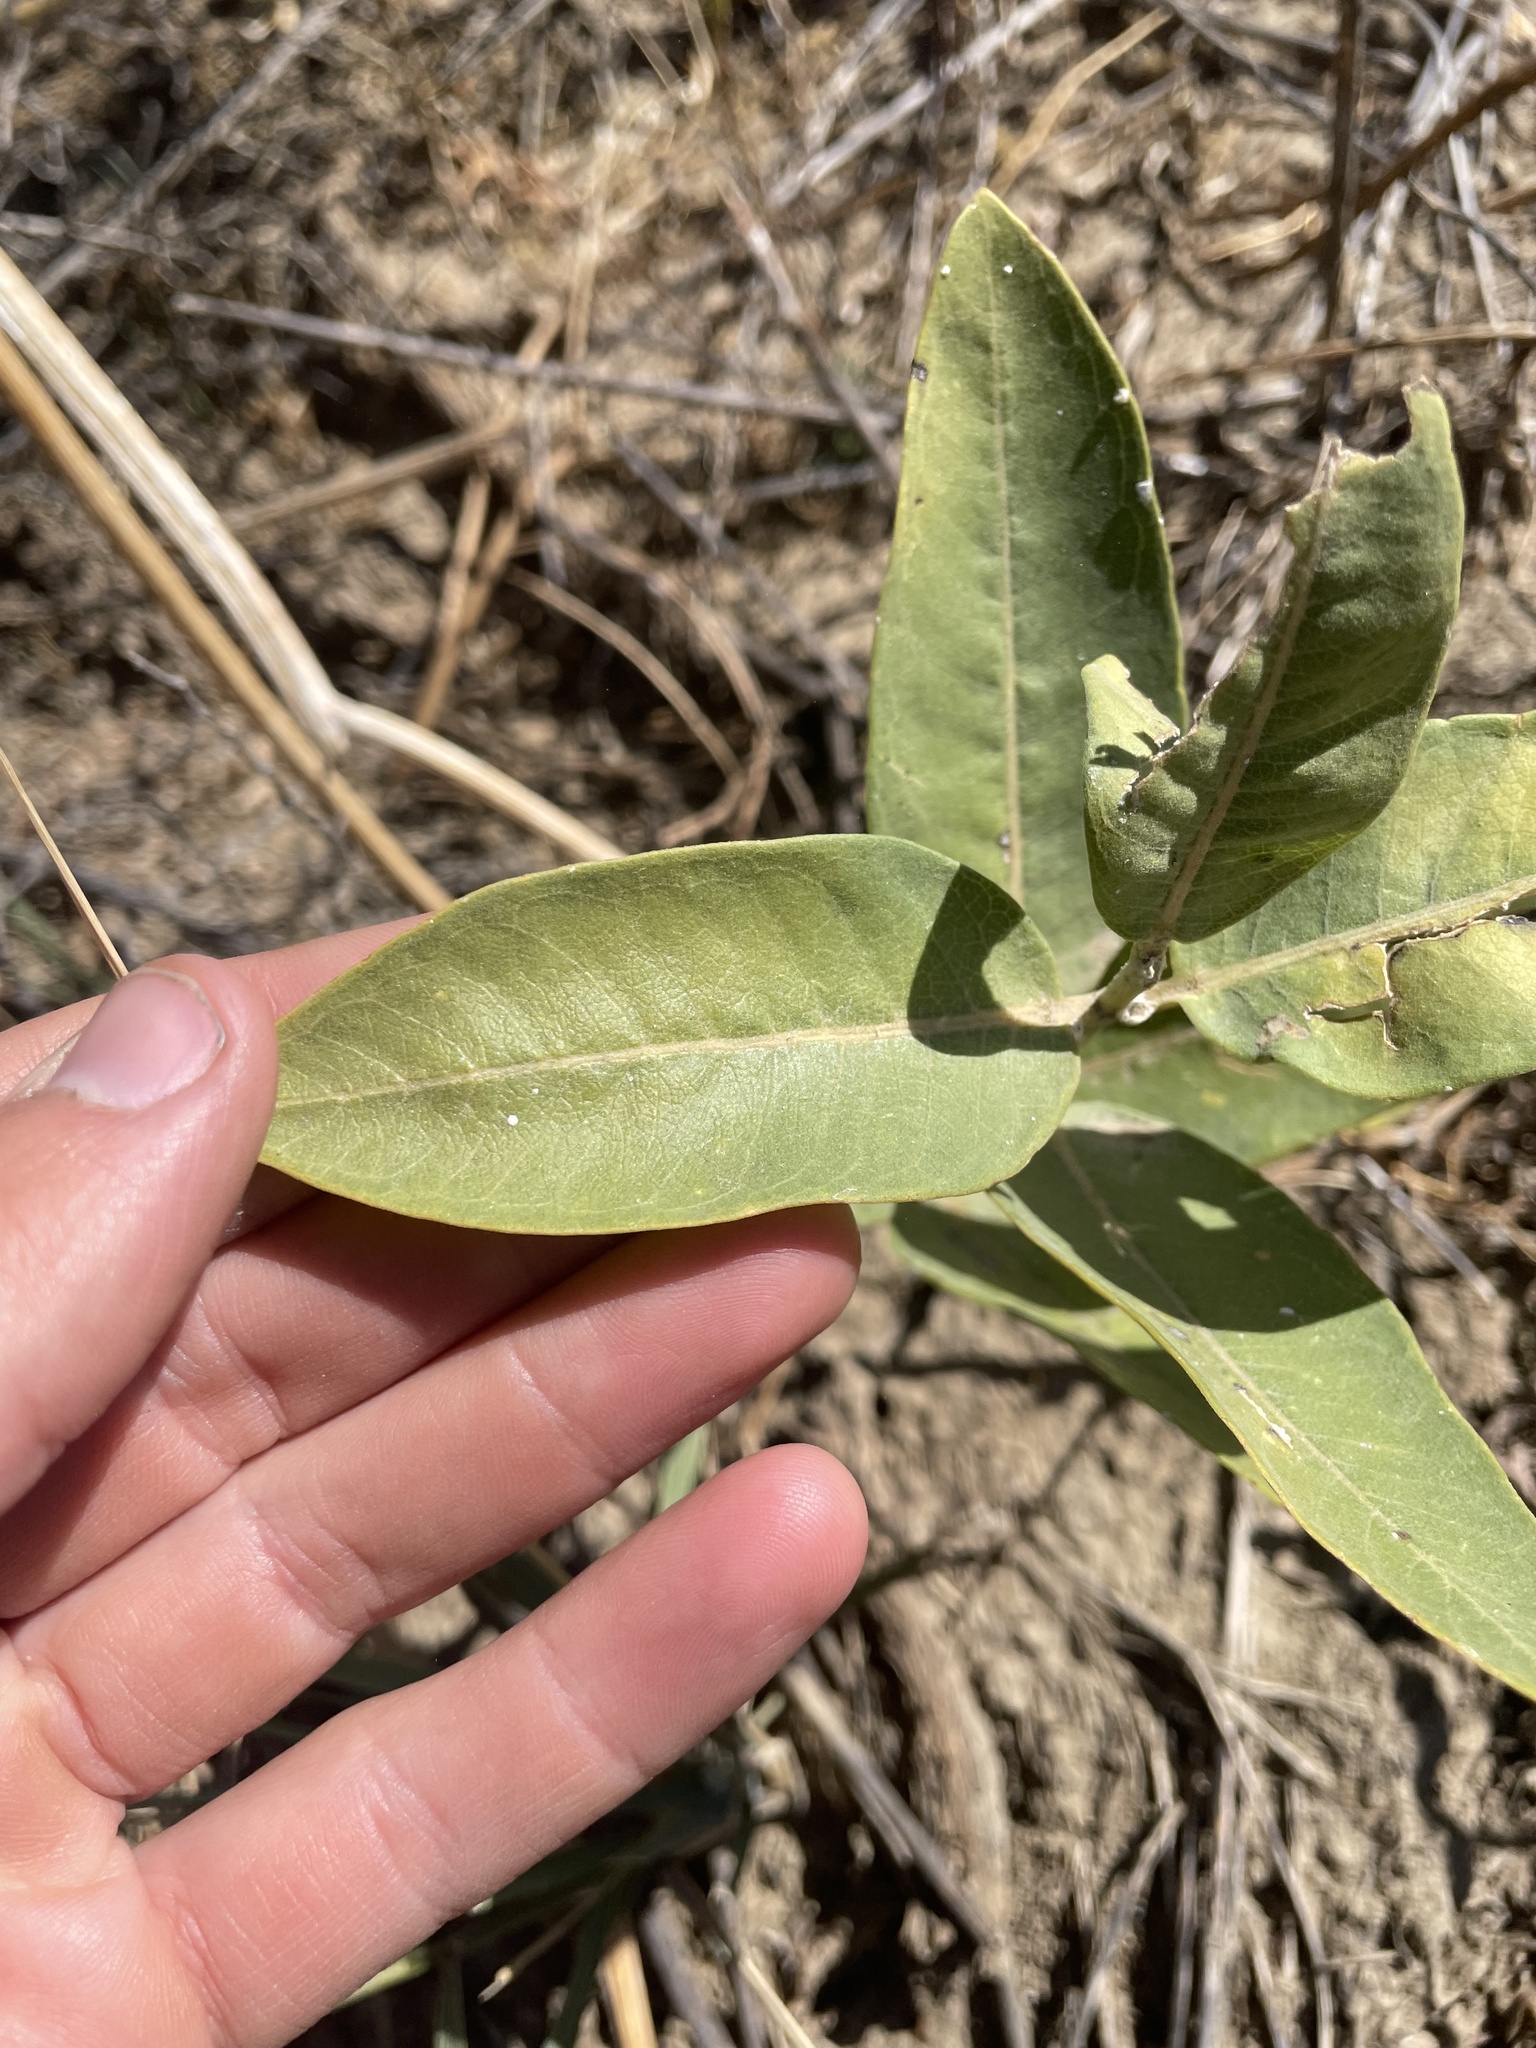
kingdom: Plantae
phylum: Tracheophyta
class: Magnoliopsida
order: Gentianales
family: Apocynaceae
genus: Asclepias
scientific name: Asclepias speciosa
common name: Showy milkweed
